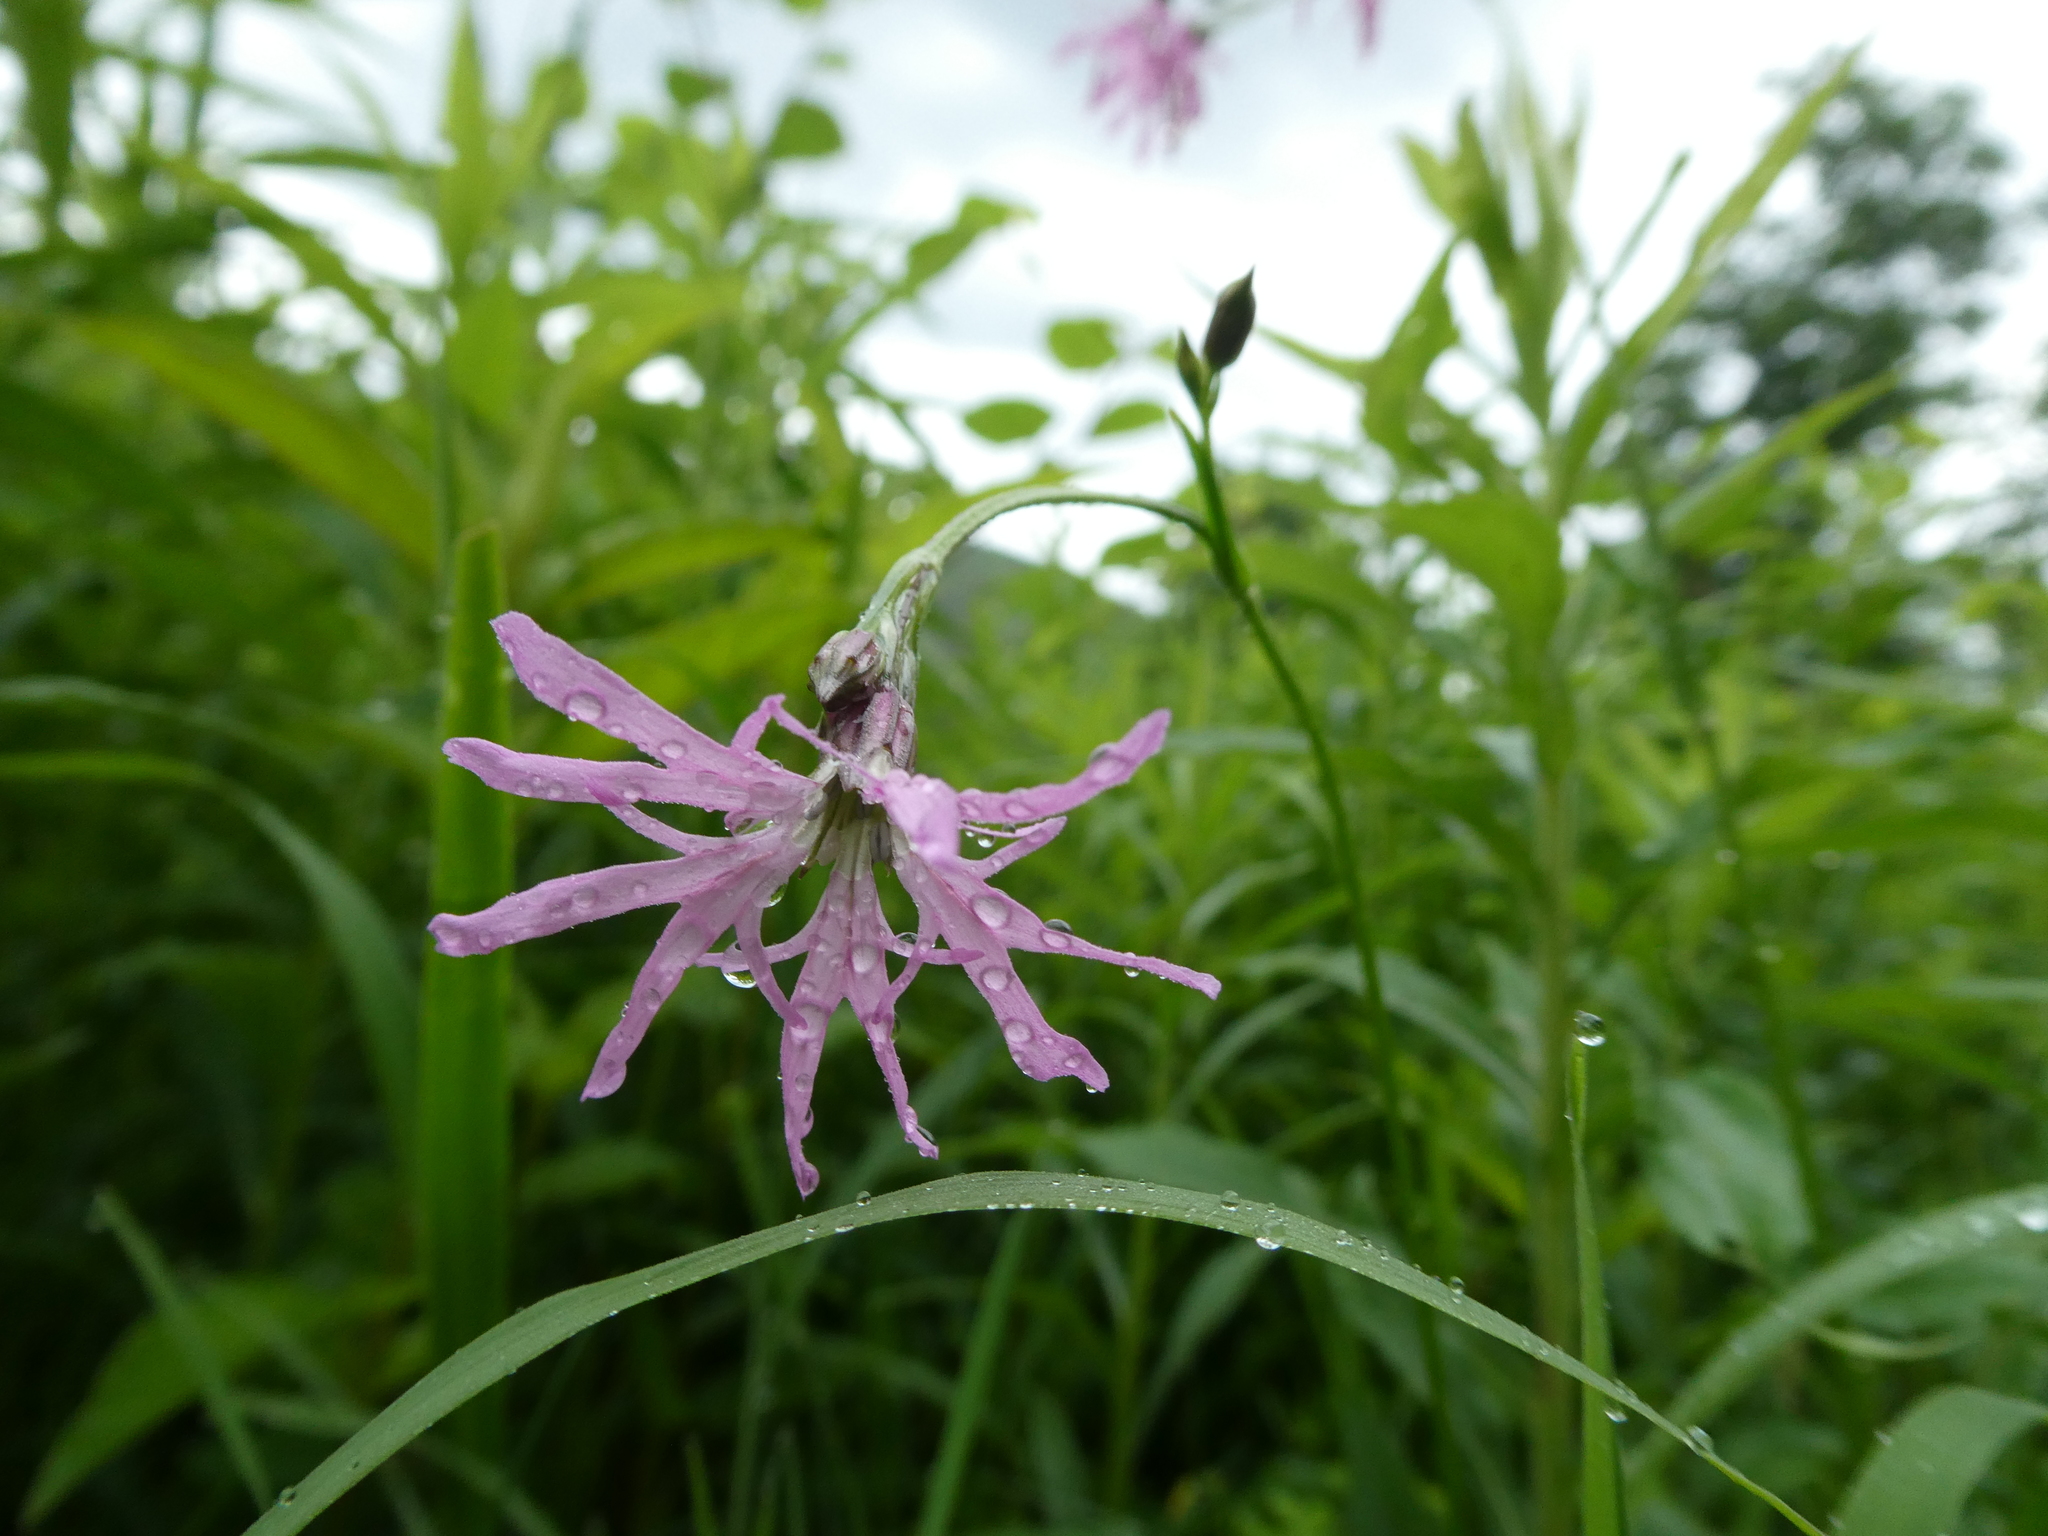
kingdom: Plantae
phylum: Tracheophyta
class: Magnoliopsida
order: Caryophyllales
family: Caryophyllaceae
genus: Silene
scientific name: Silene flos-cuculi
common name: Ragged-robin
